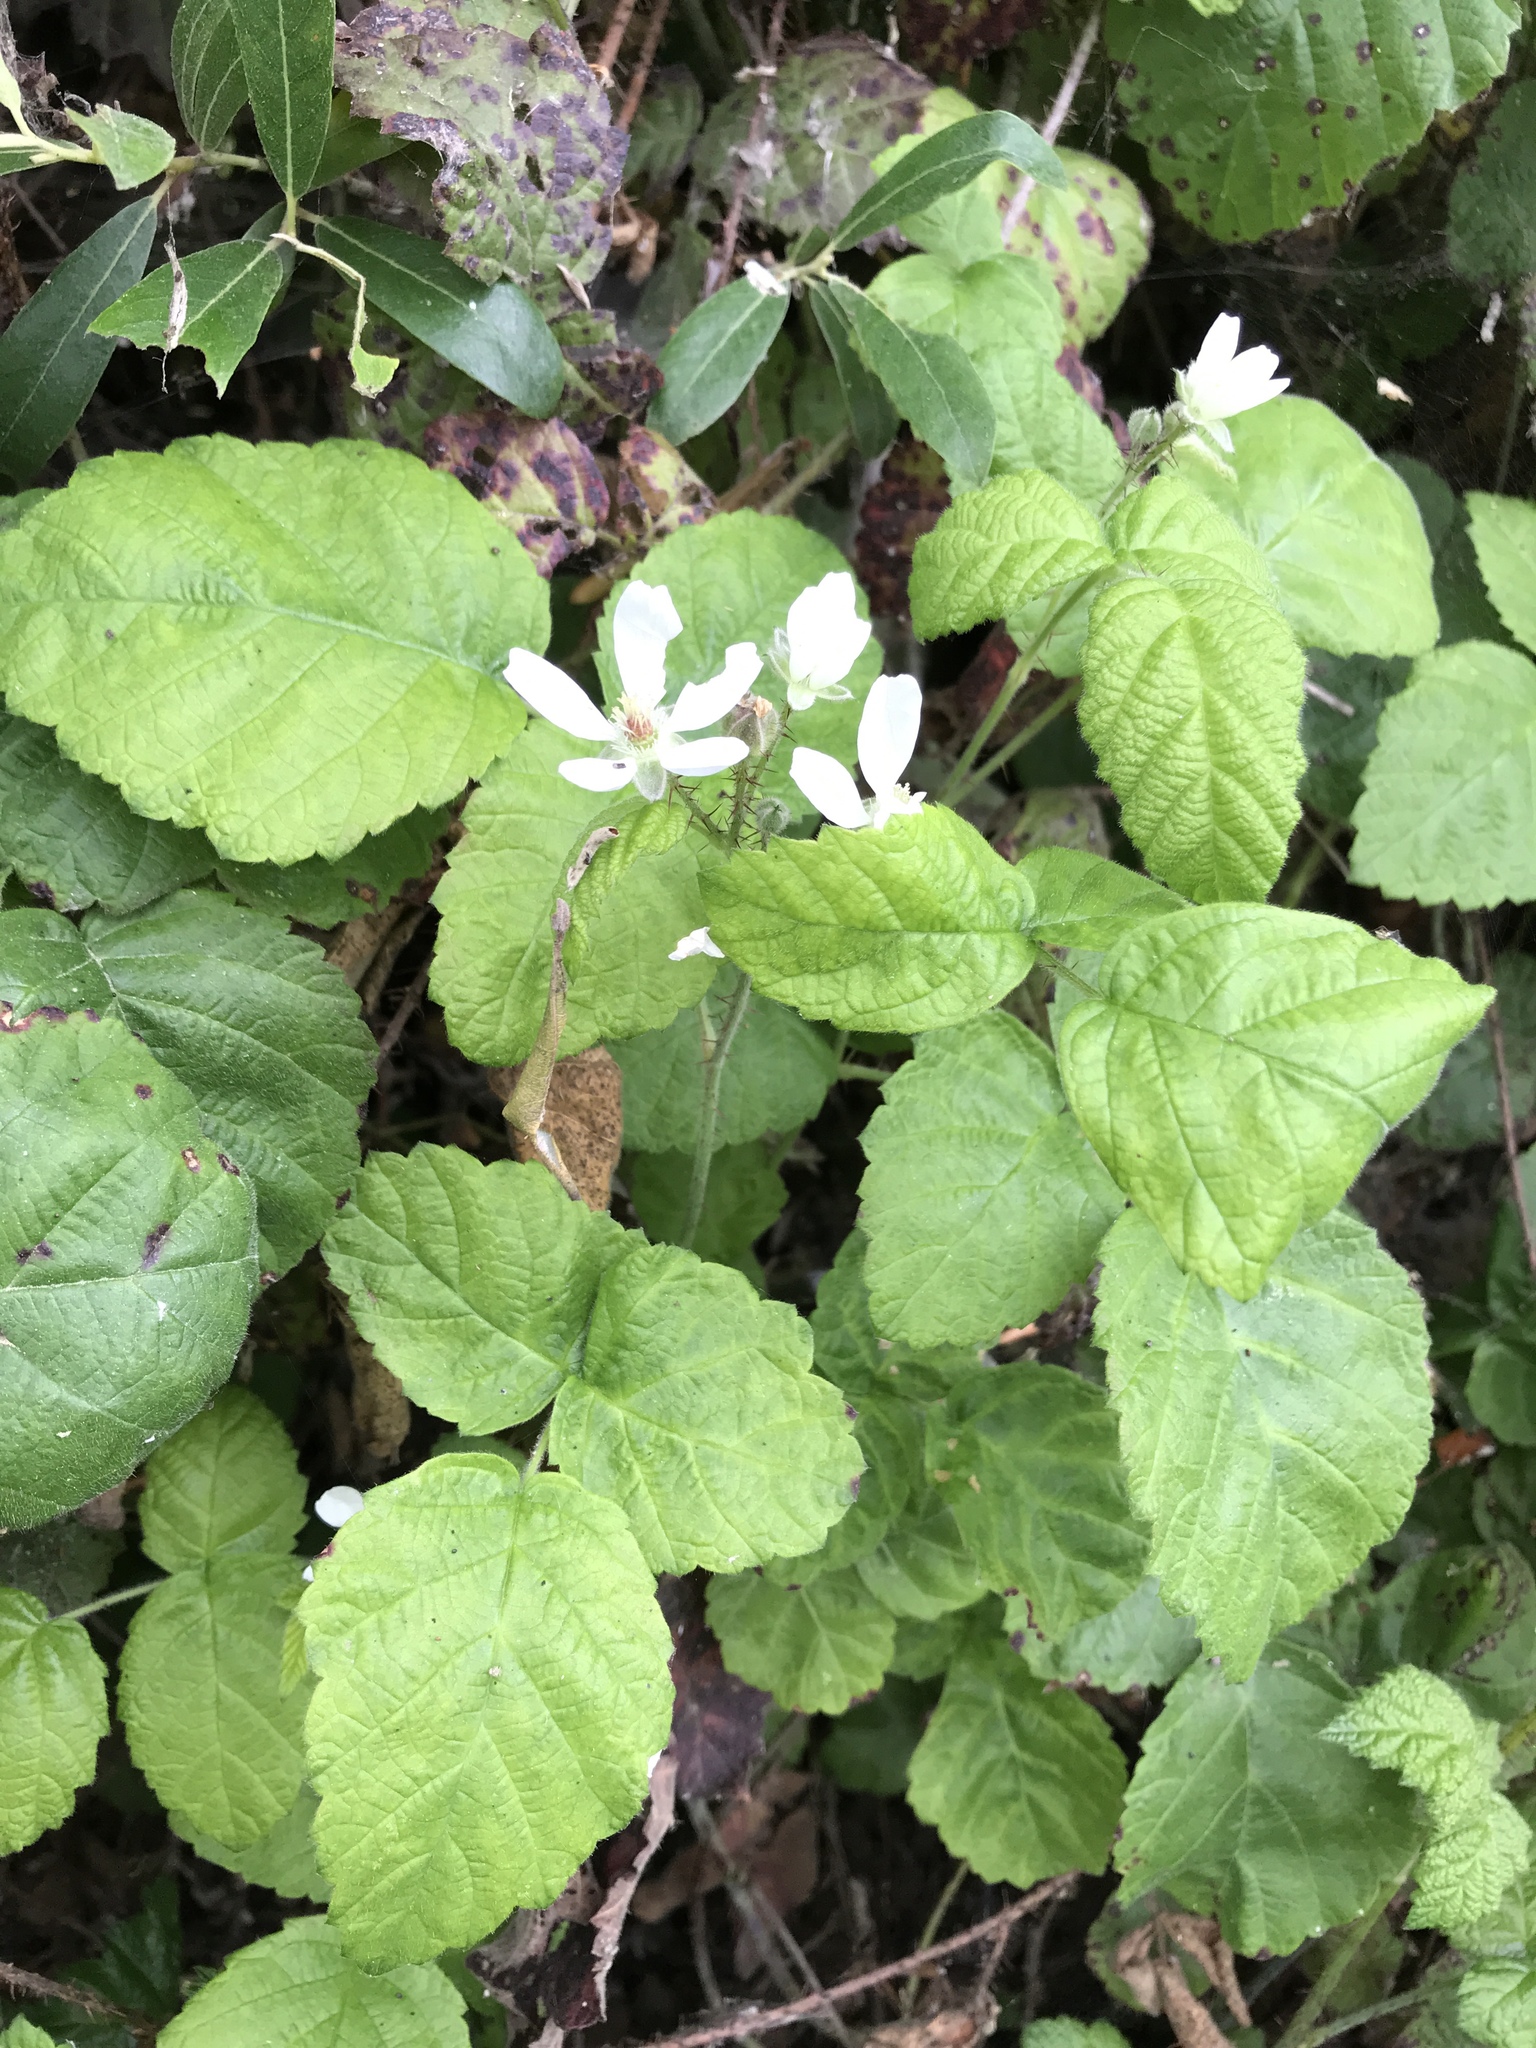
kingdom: Plantae
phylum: Tracheophyta
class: Magnoliopsida
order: Rosales
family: Rosaceae
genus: Rubus
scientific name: Rubus ursinus
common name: Pacific blackberry
